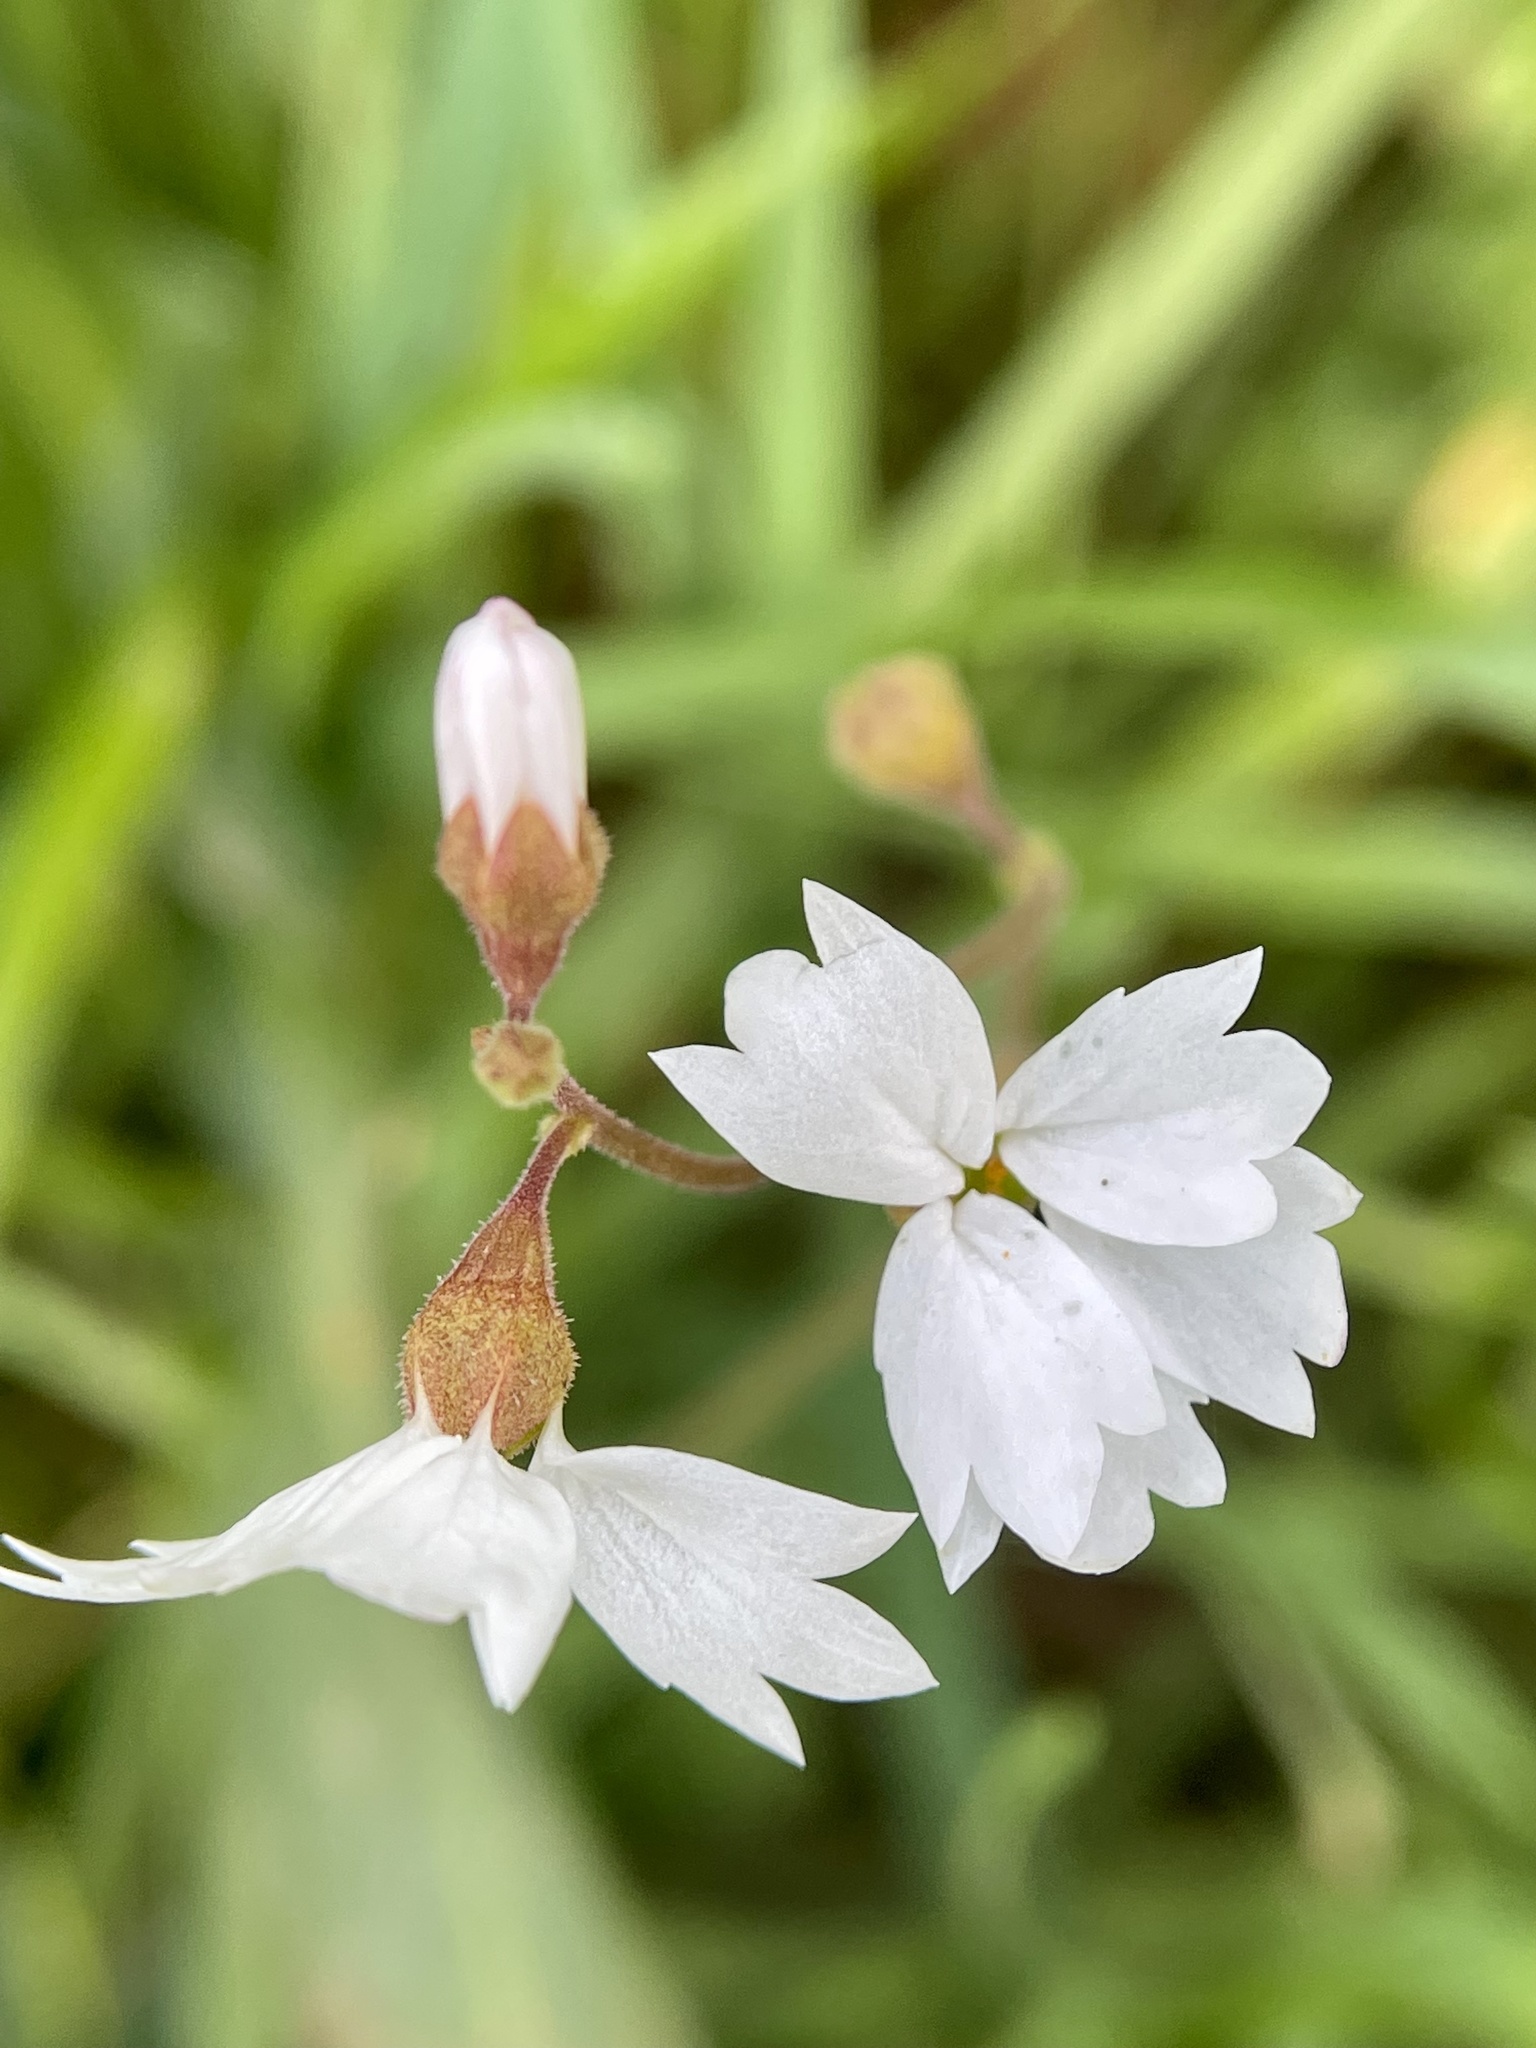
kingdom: Plantae
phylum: Tracheophyta
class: Magnoliopsida
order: Saxifragales
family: Saxifragaceae
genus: Lithophragma
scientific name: Lithophragma affine
